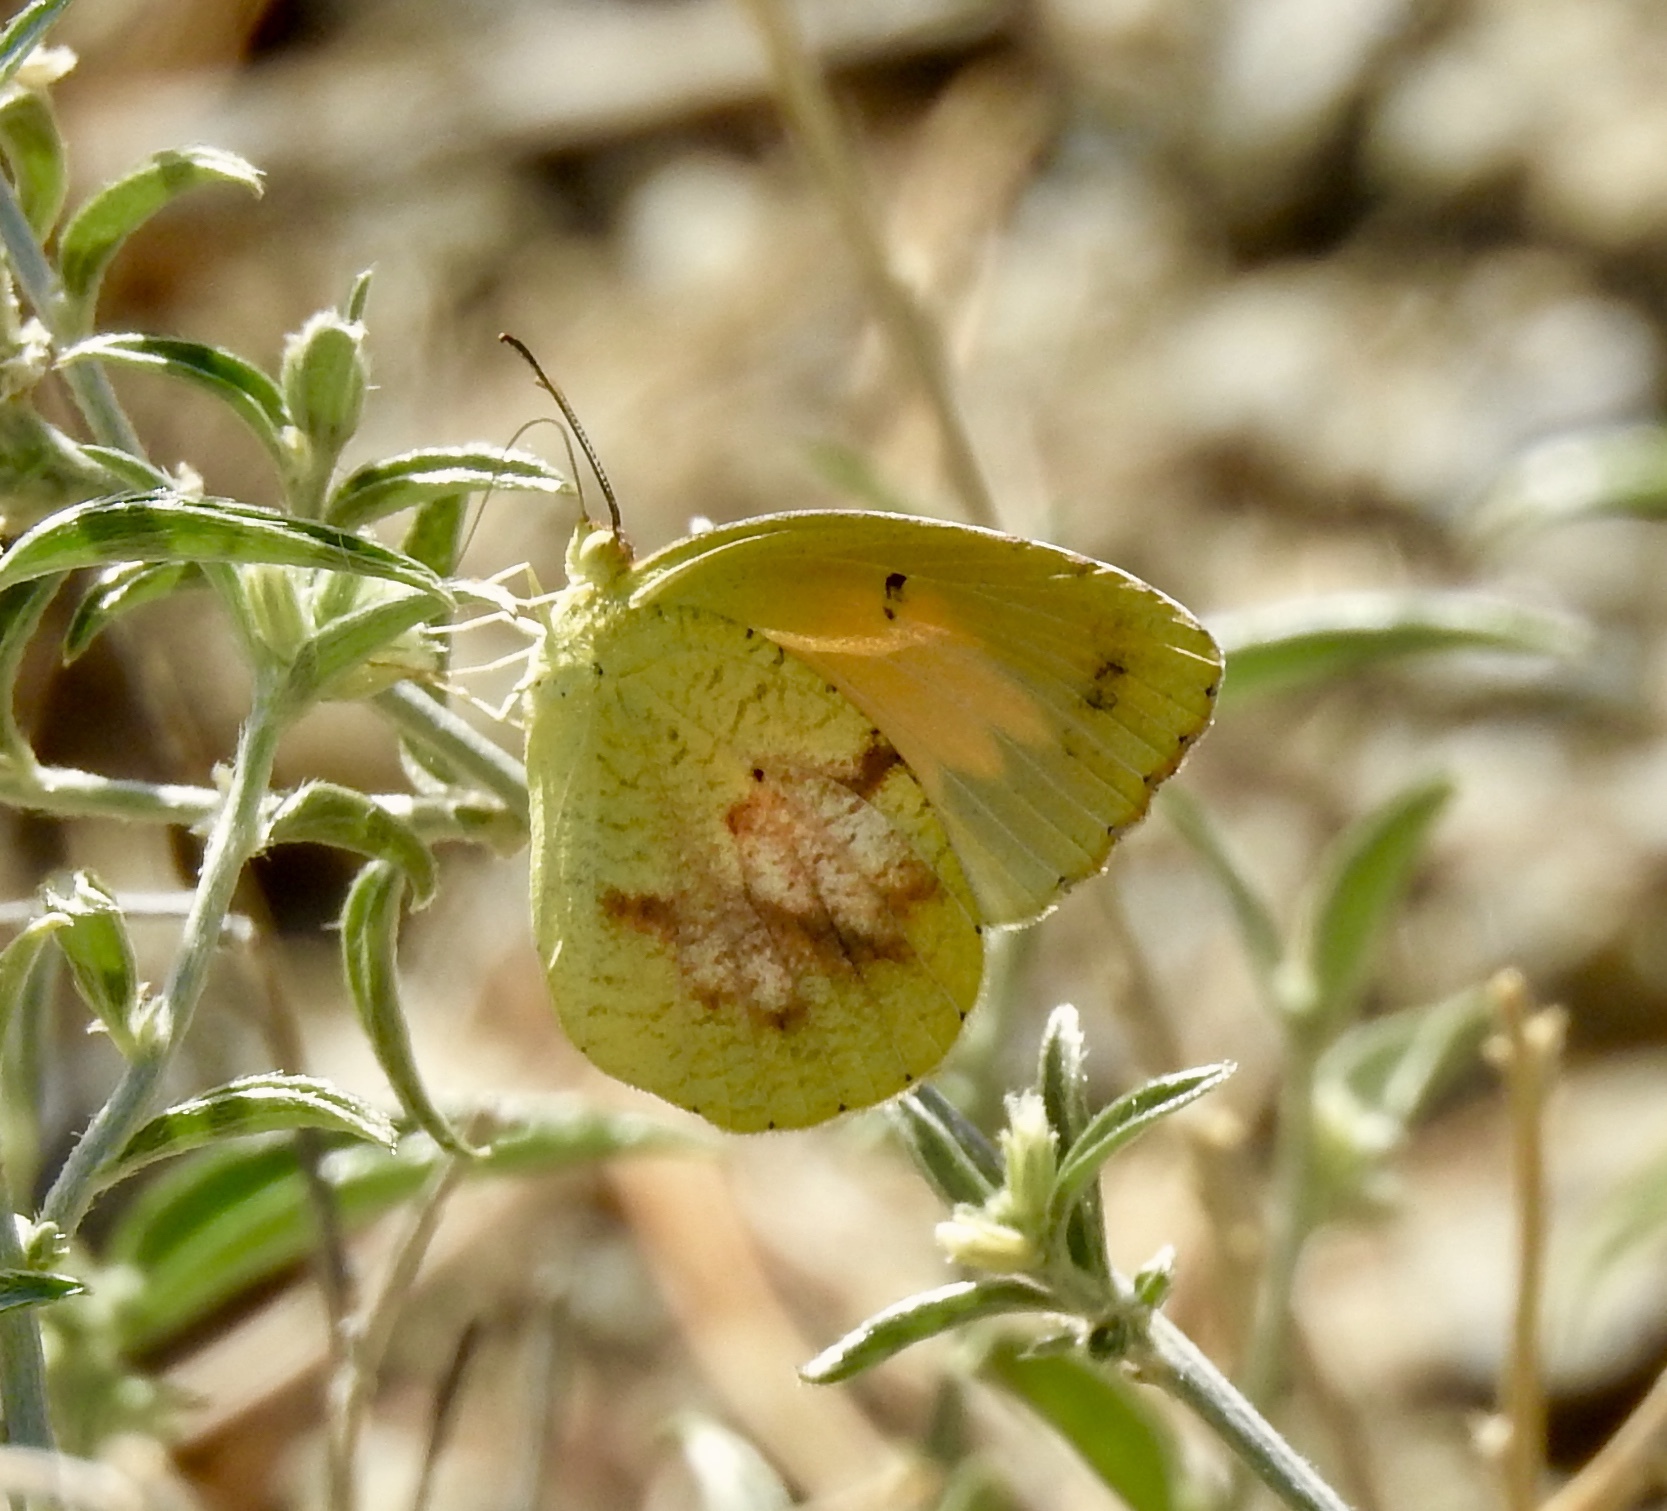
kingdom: Animalia
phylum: Arthropoda
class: Insecta
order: Lepidoptera
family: Pieridae
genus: Abaeis
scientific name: Abaeis nicippe
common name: Sleepy orange
